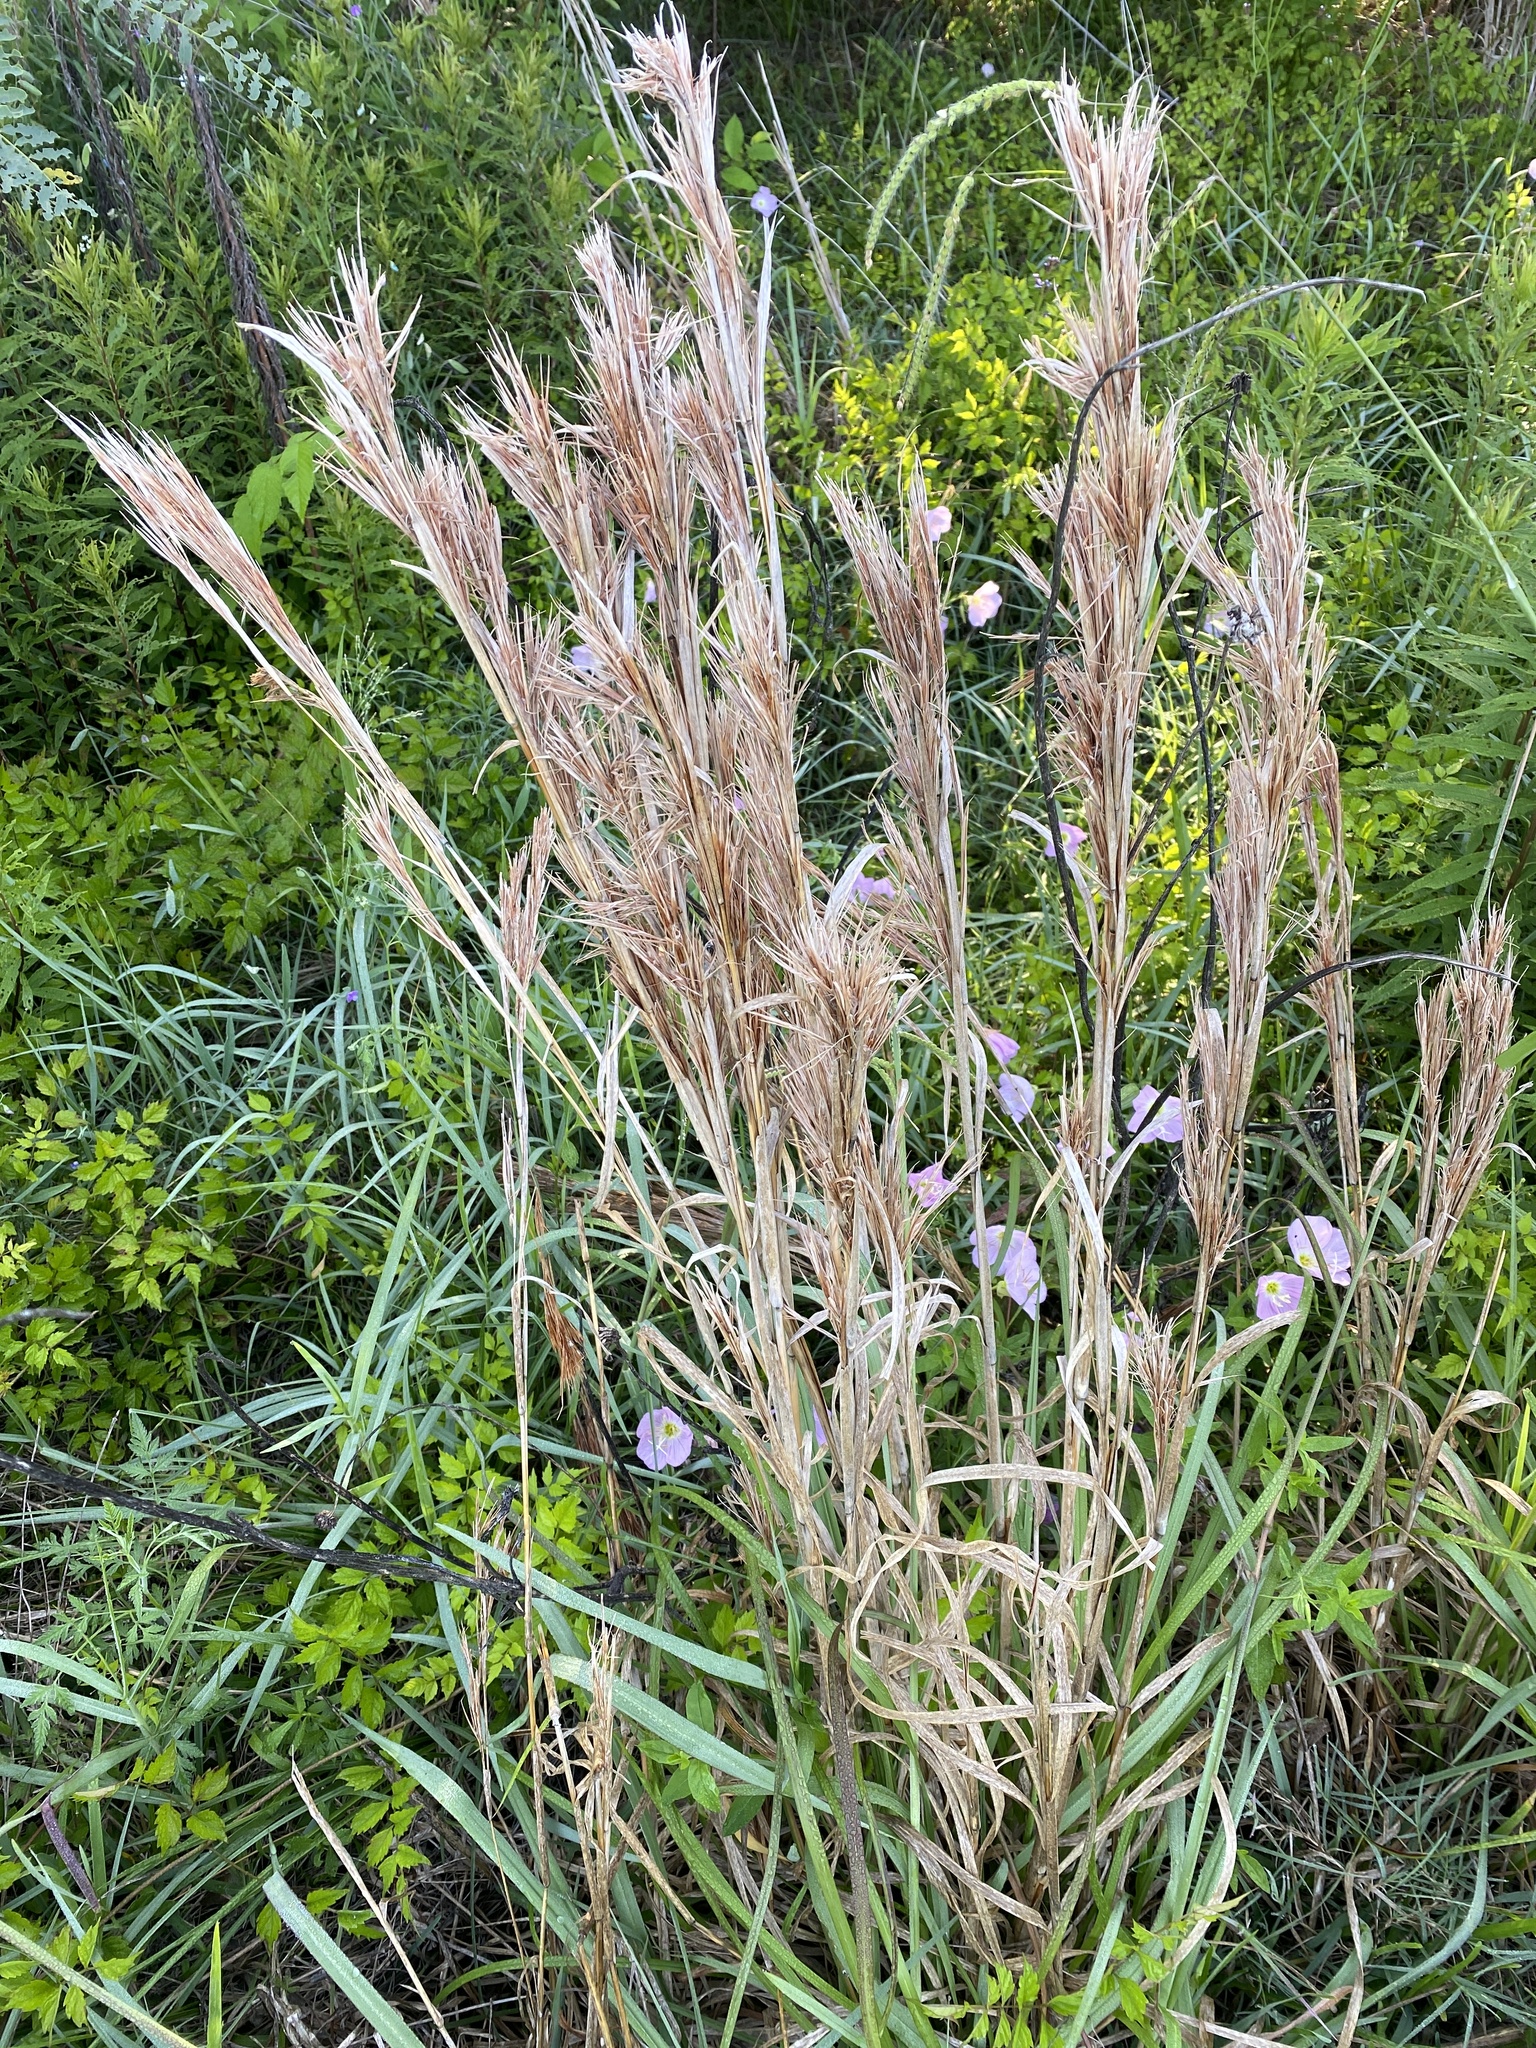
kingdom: Plantae
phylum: Tracheophyta
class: Liliopsida
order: Poales
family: Poaceae
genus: Andropogon
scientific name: Andropogon tenuispatheus
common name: Bushy bluestem
